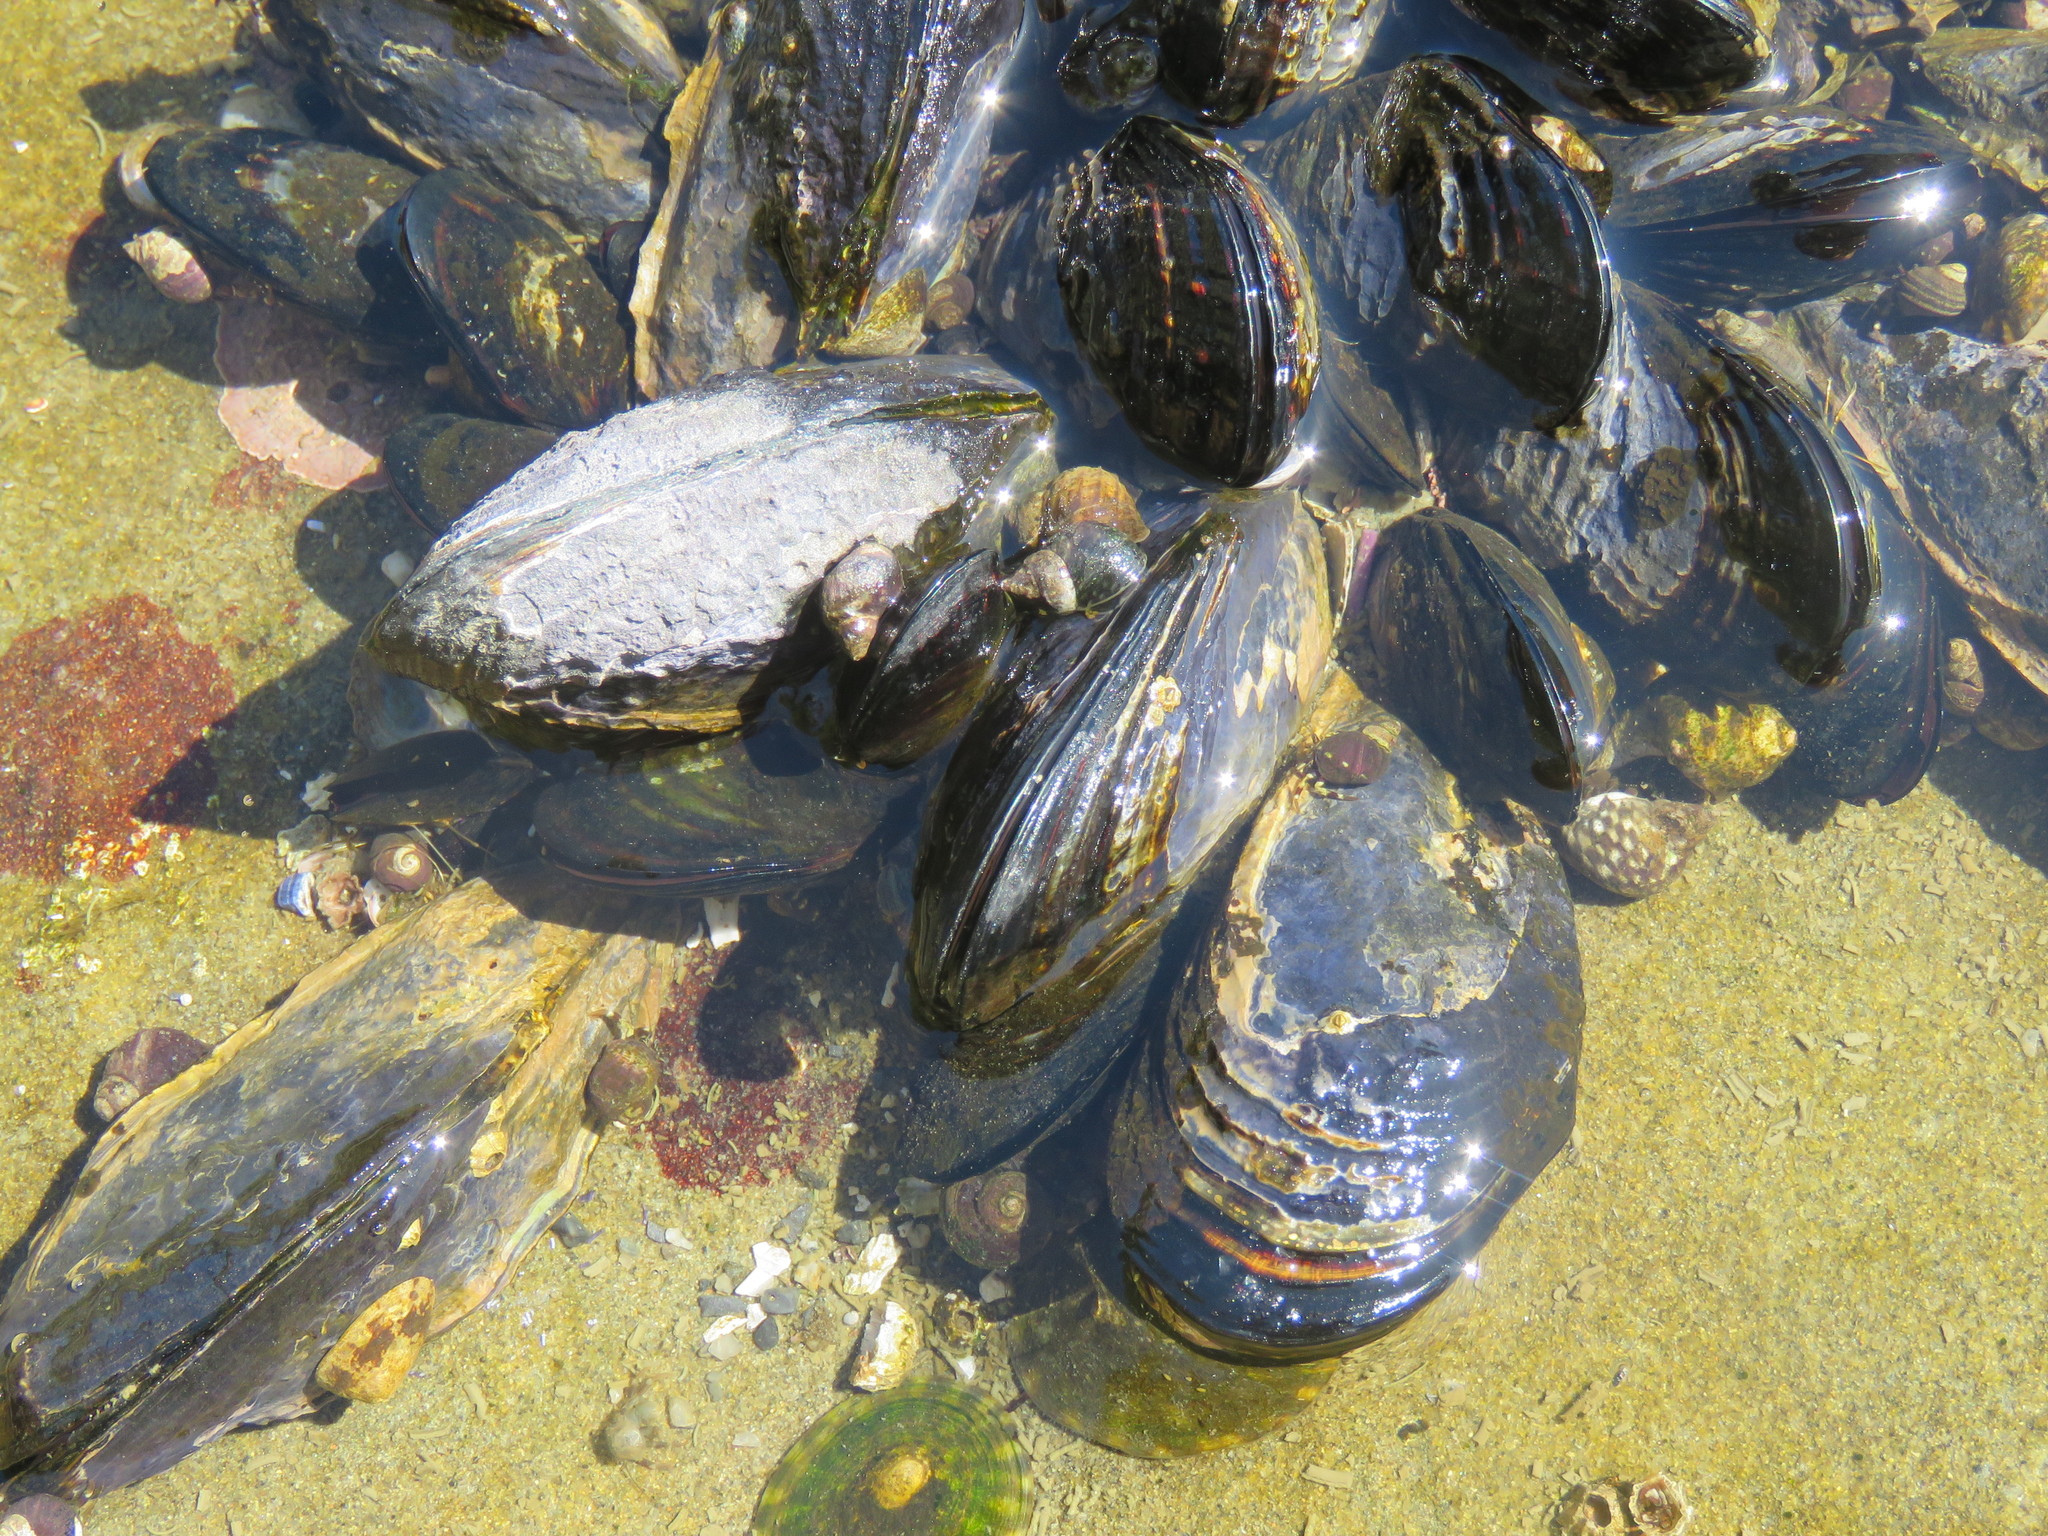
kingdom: Animalia
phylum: Mollusca
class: Bivalvia
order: Mytilida
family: Mytilidae
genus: Mytilus
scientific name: Mytilus californianus
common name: California mussel
